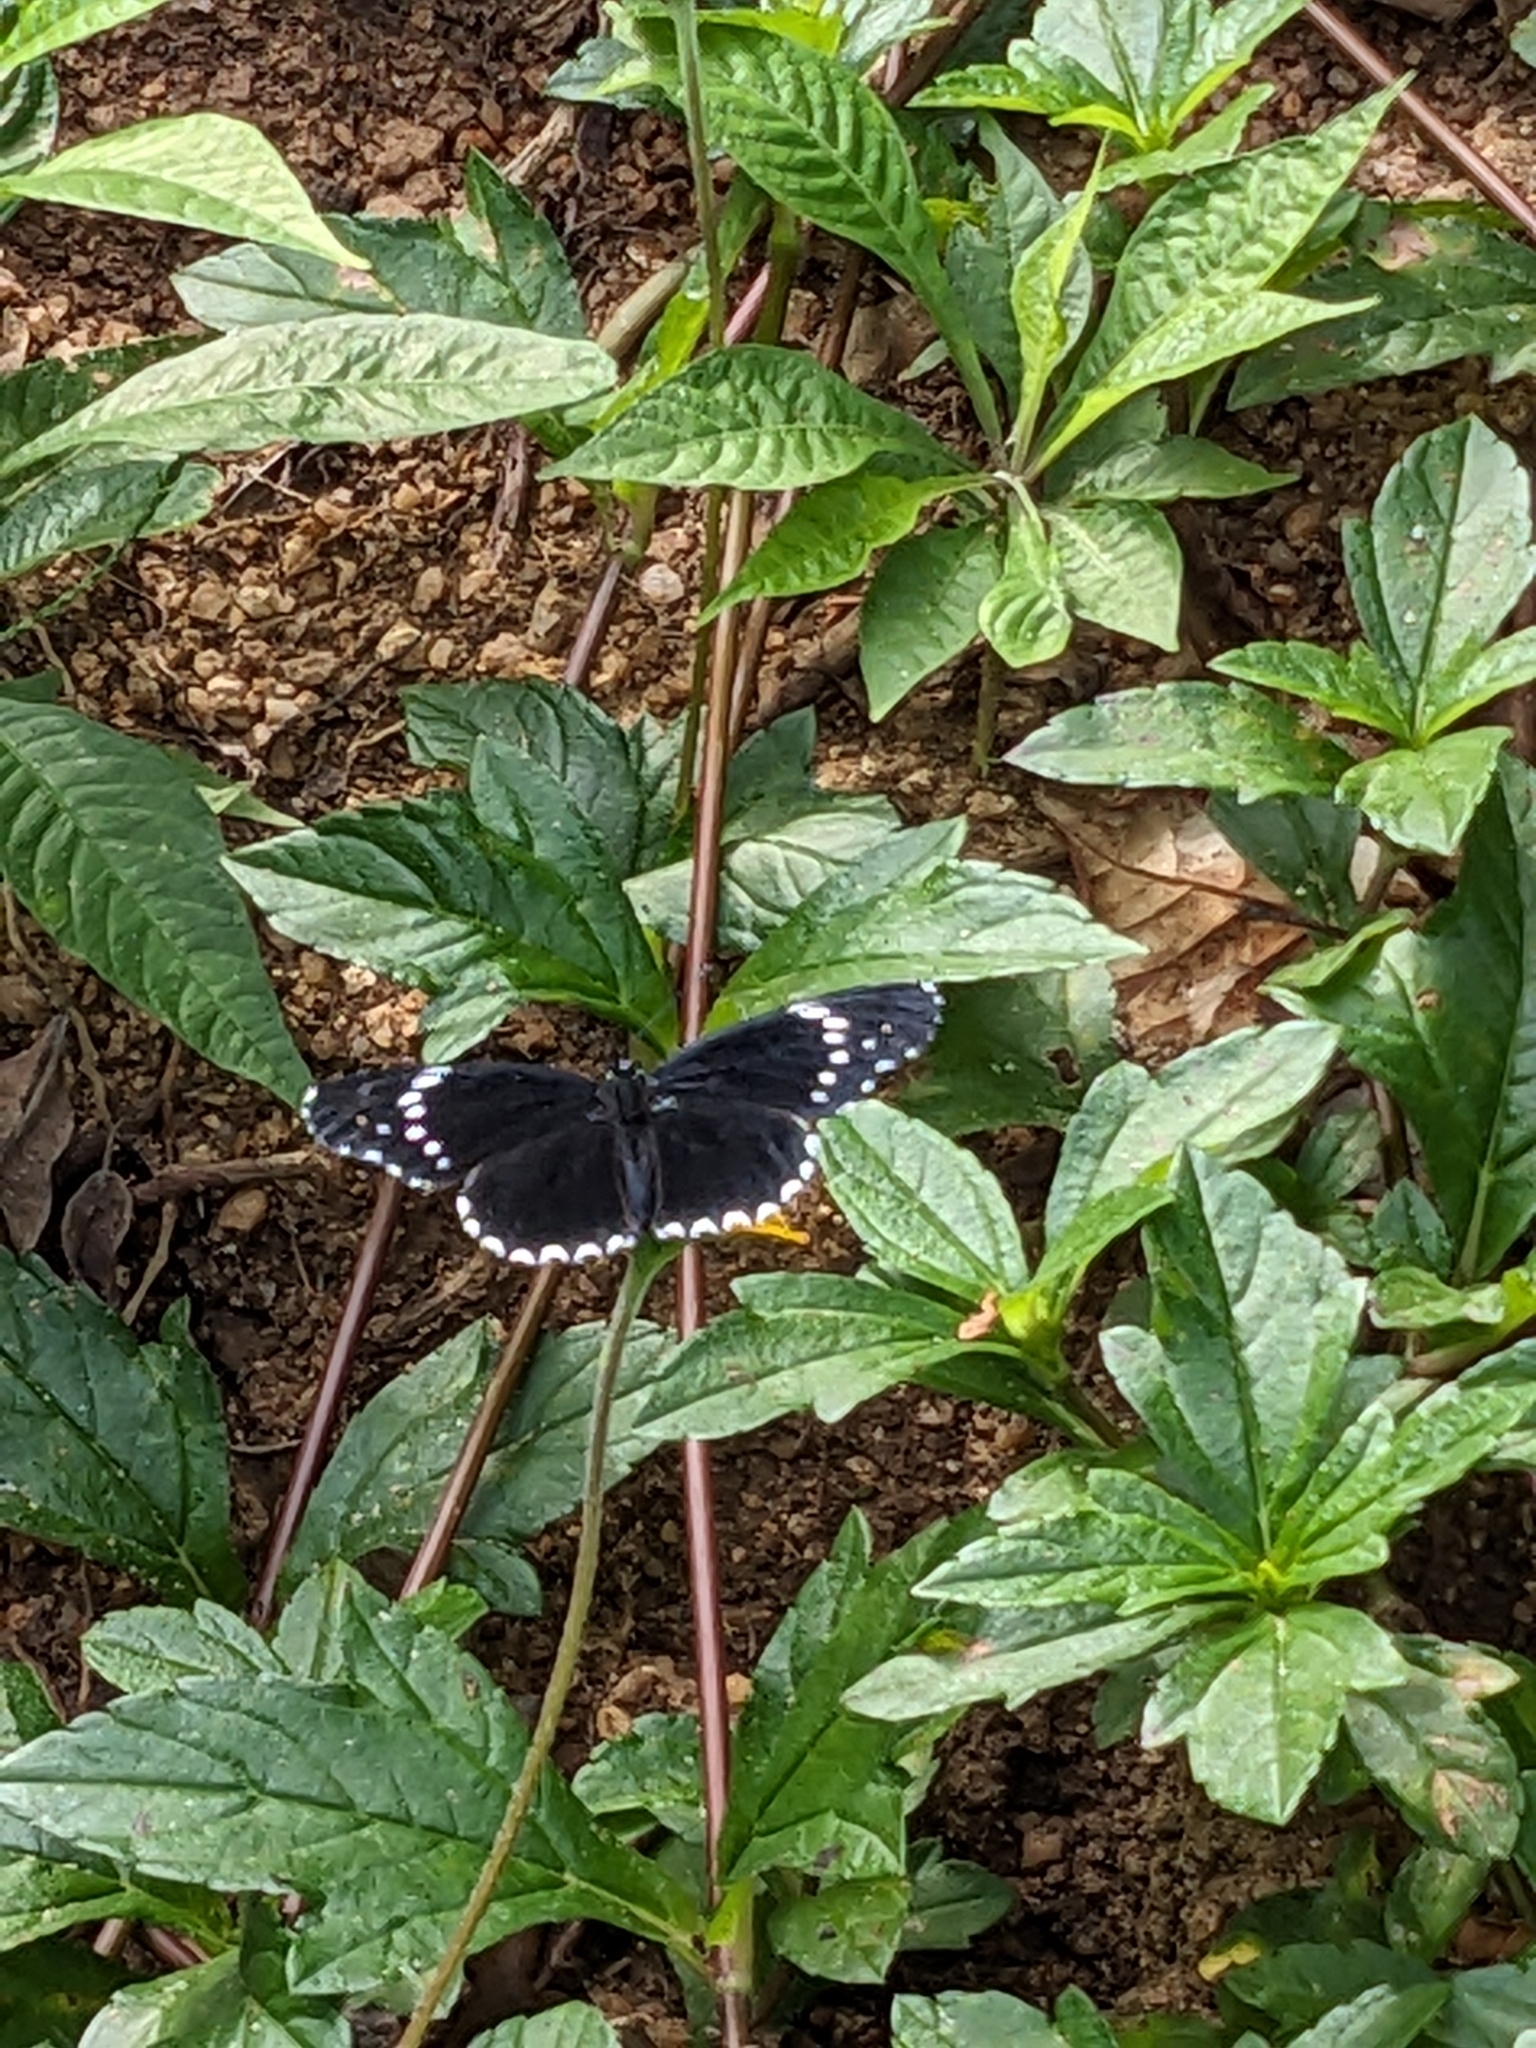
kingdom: Animalia
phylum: Arthropoda
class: Insecta
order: Lepidoptera
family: Nymphalidae
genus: Chlosyne
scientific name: Chlosyne hippodrome
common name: Simple patch
